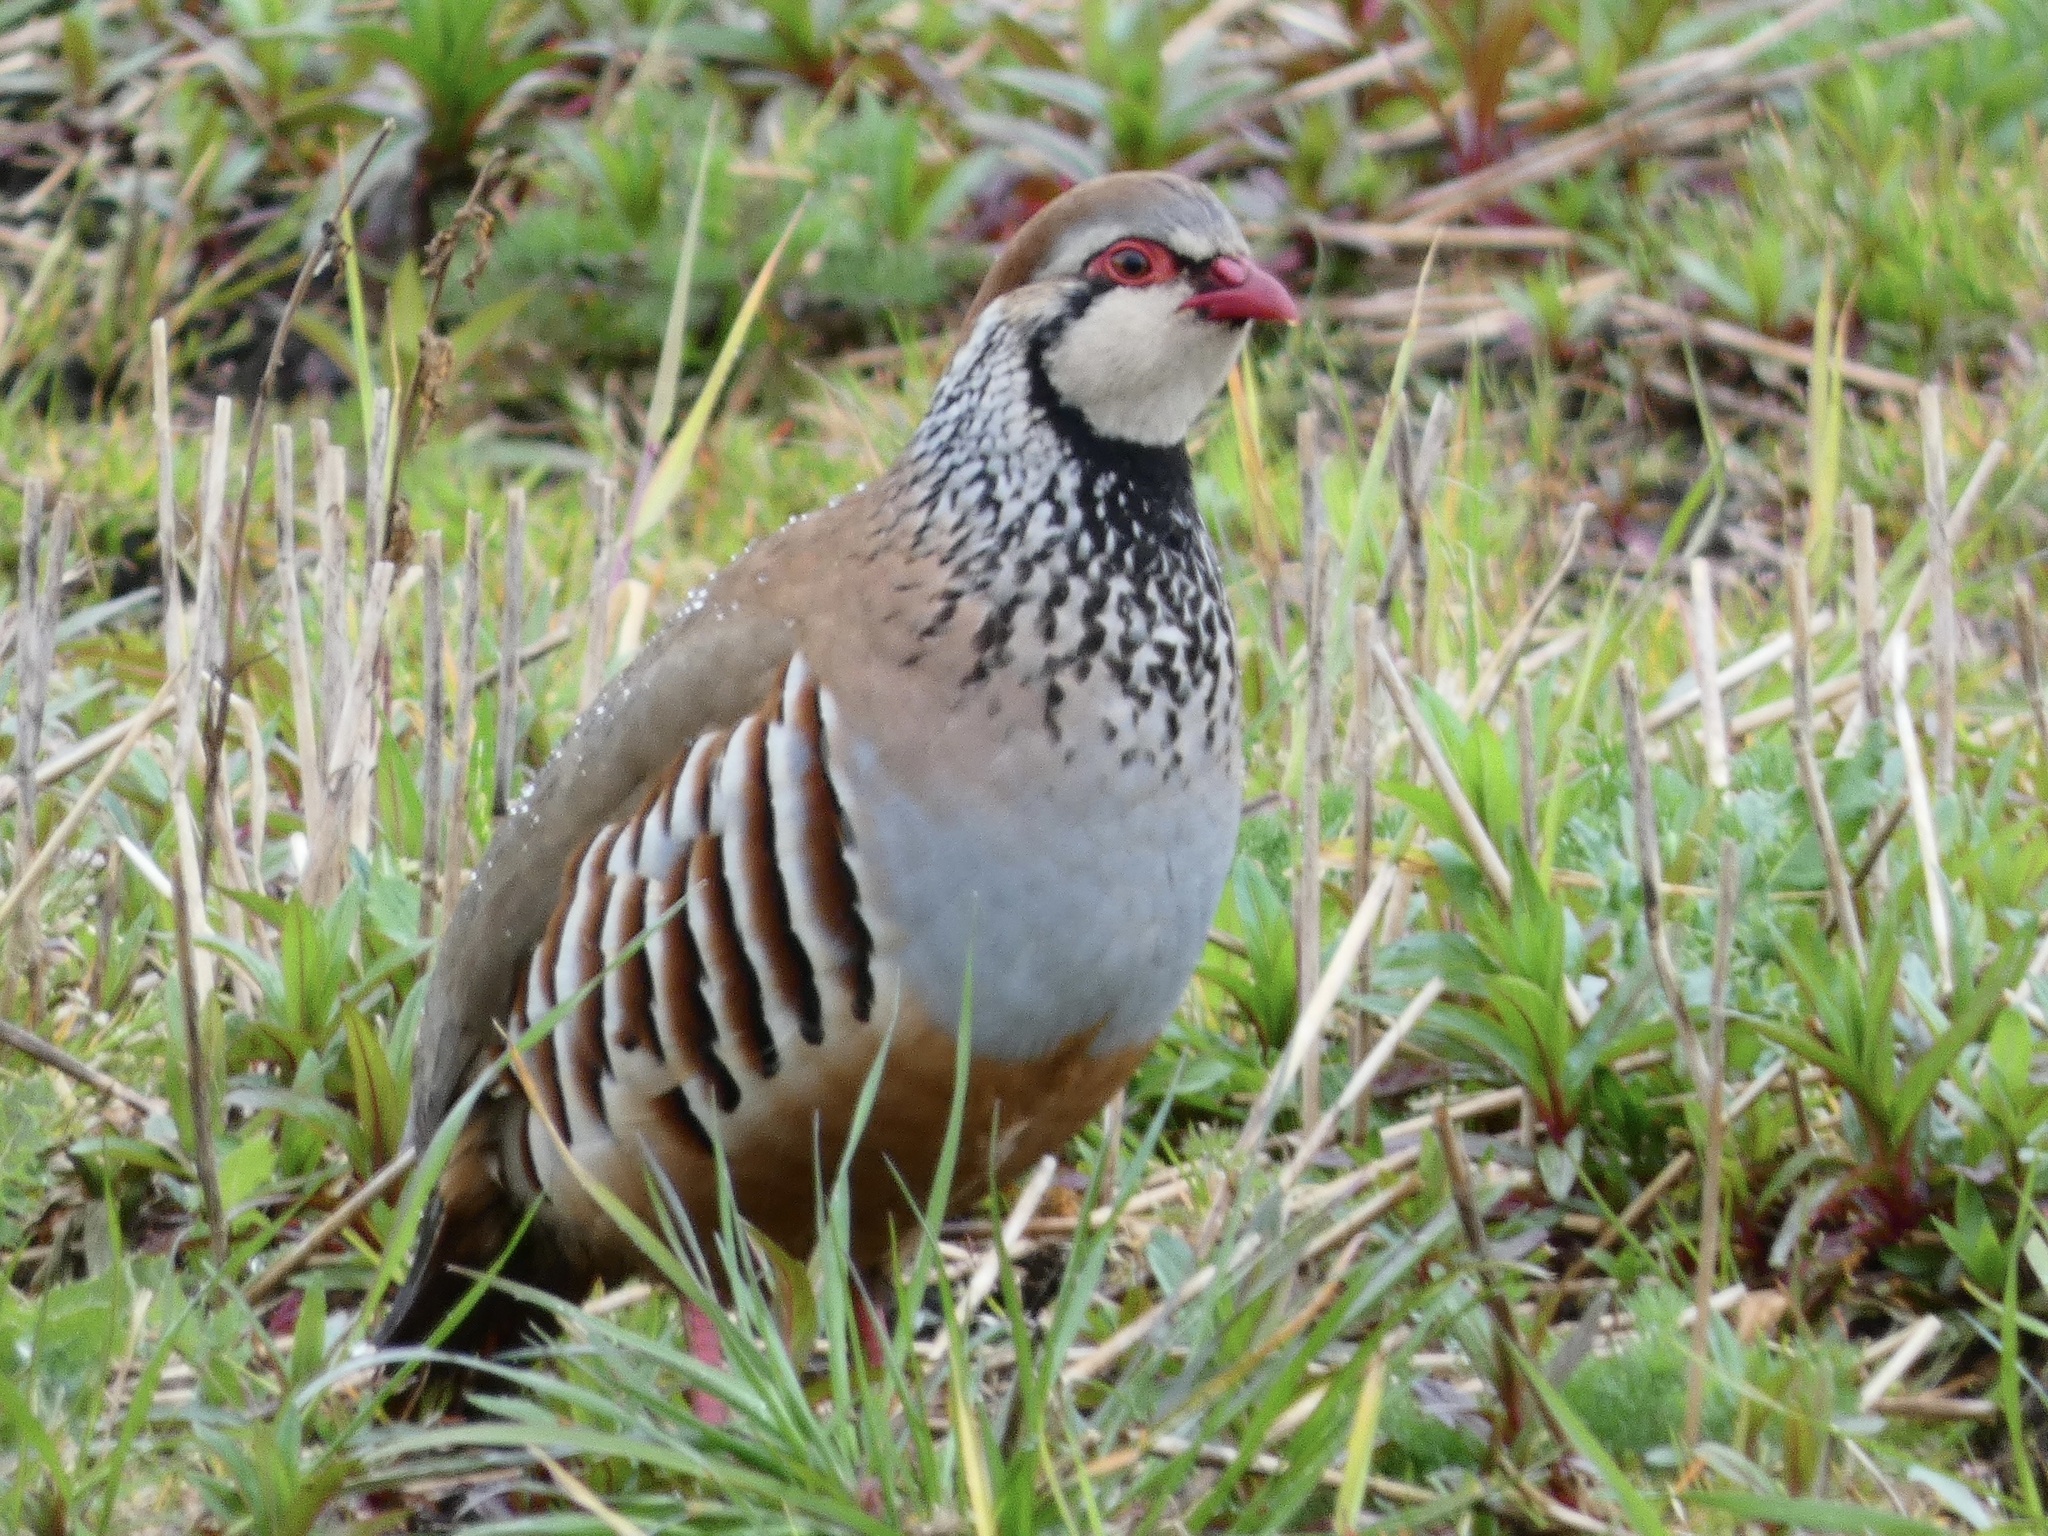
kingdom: Animalia
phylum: Chordata
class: Aves
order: Galliformes
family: Phasianidae
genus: Alectoris
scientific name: Alectoris rufa
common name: Red-legged partridge
